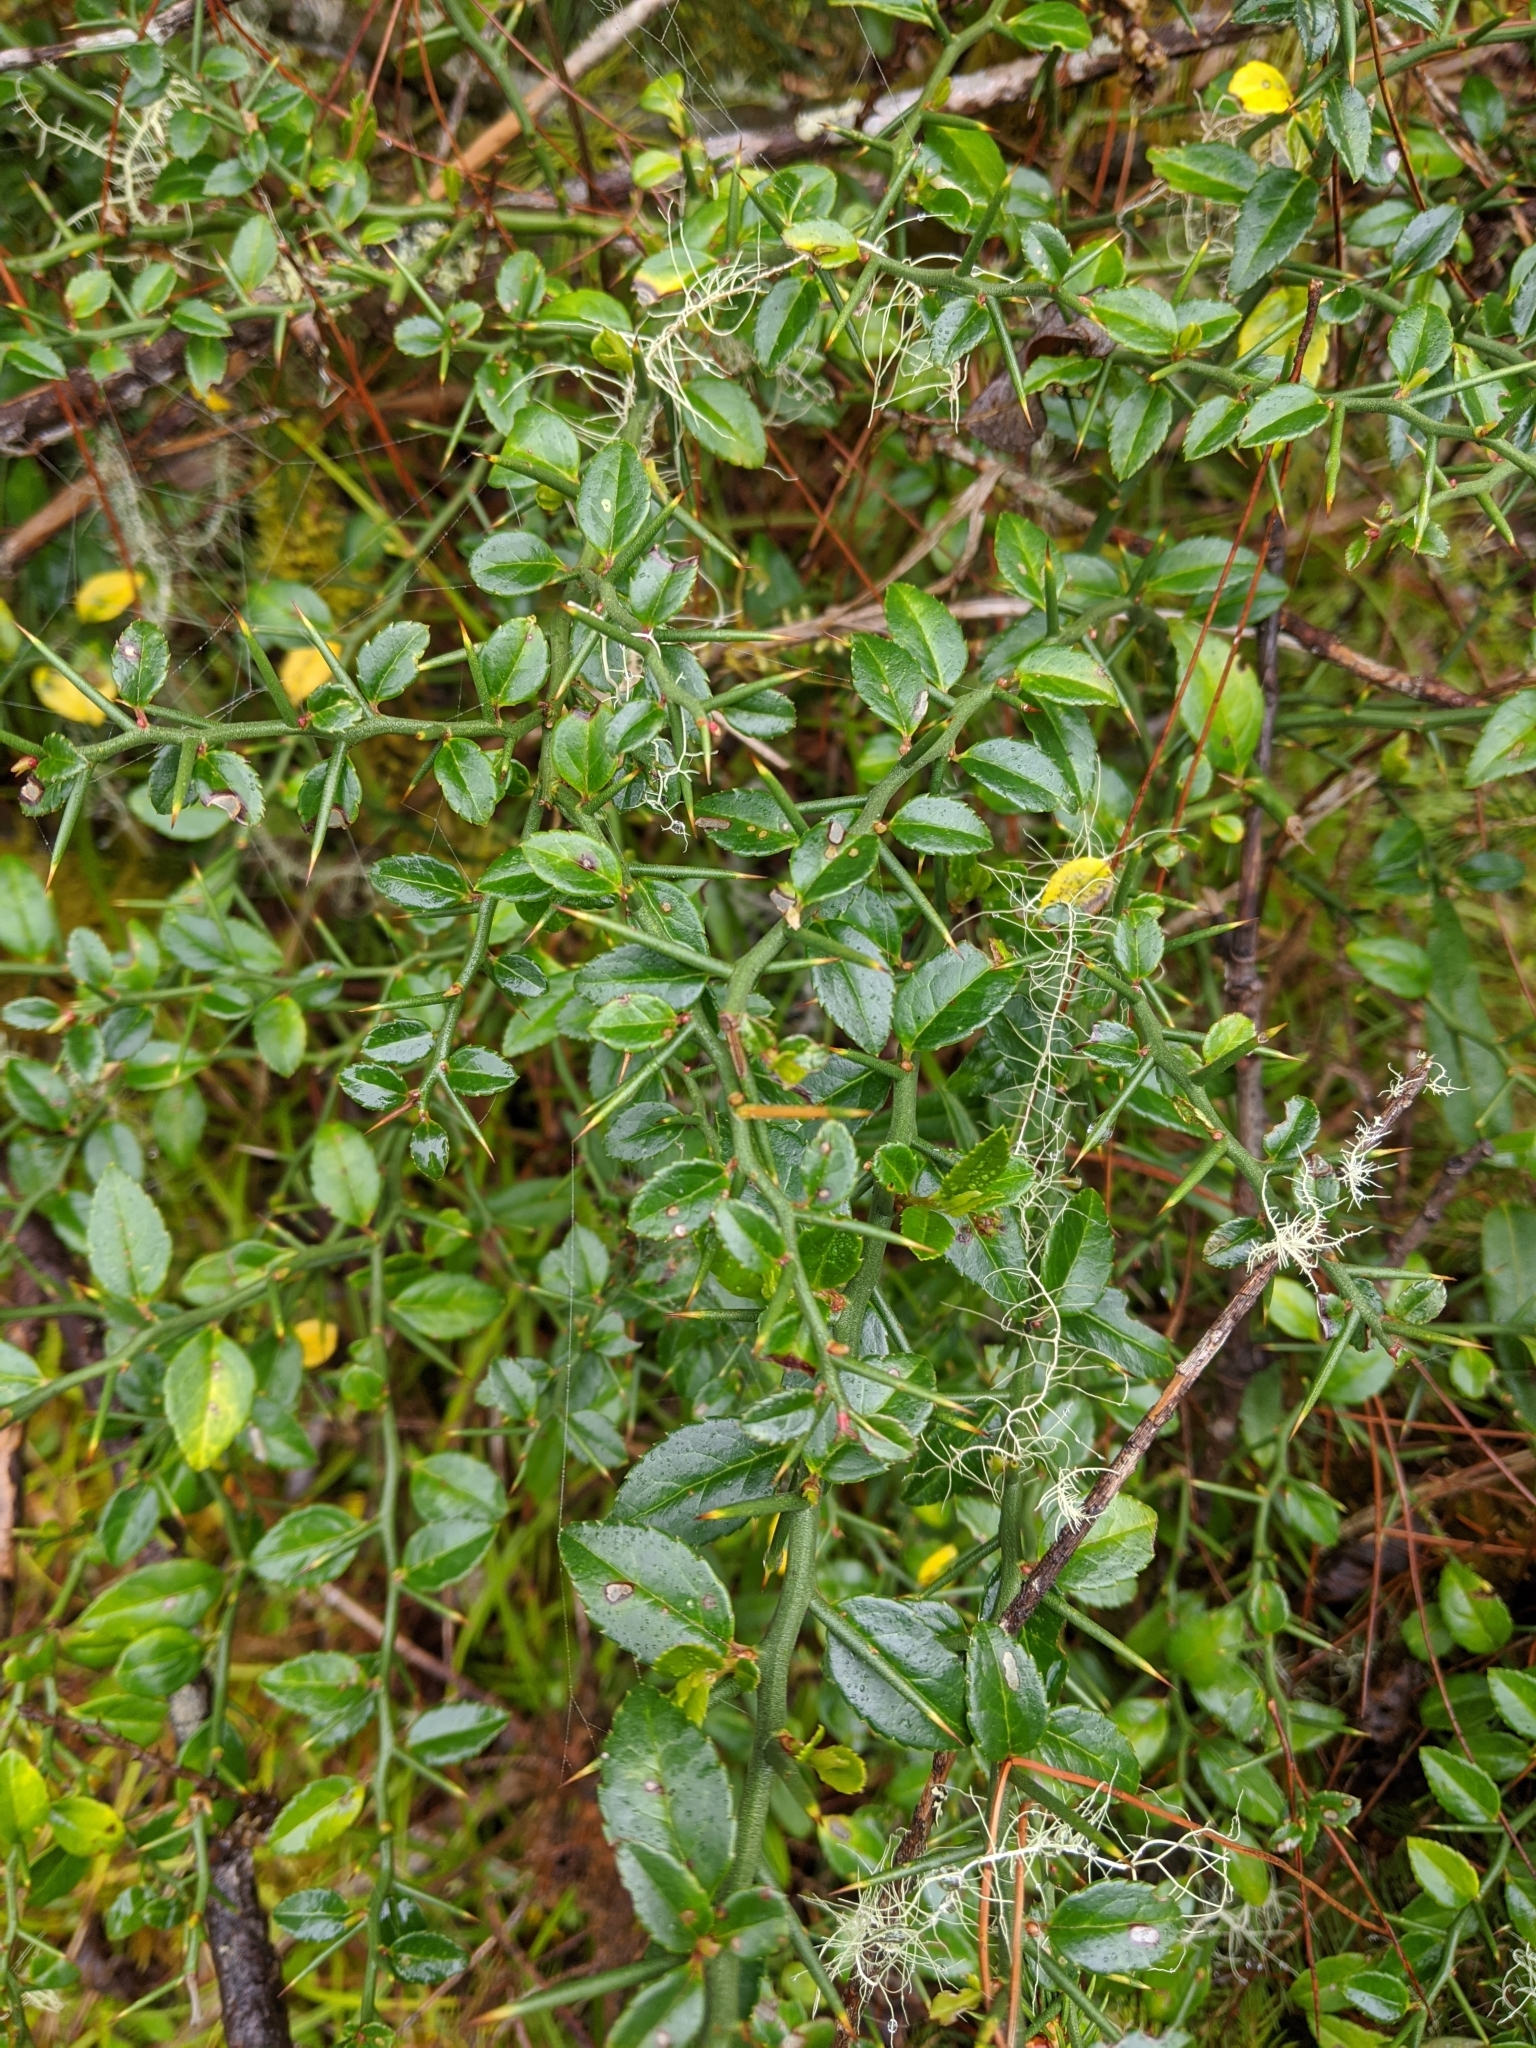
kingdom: Plantae
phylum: Tracheophyta
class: Magnoliopsida
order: Rosales
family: Rosaceae
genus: Prinsepia
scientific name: Prinsepia scandens
